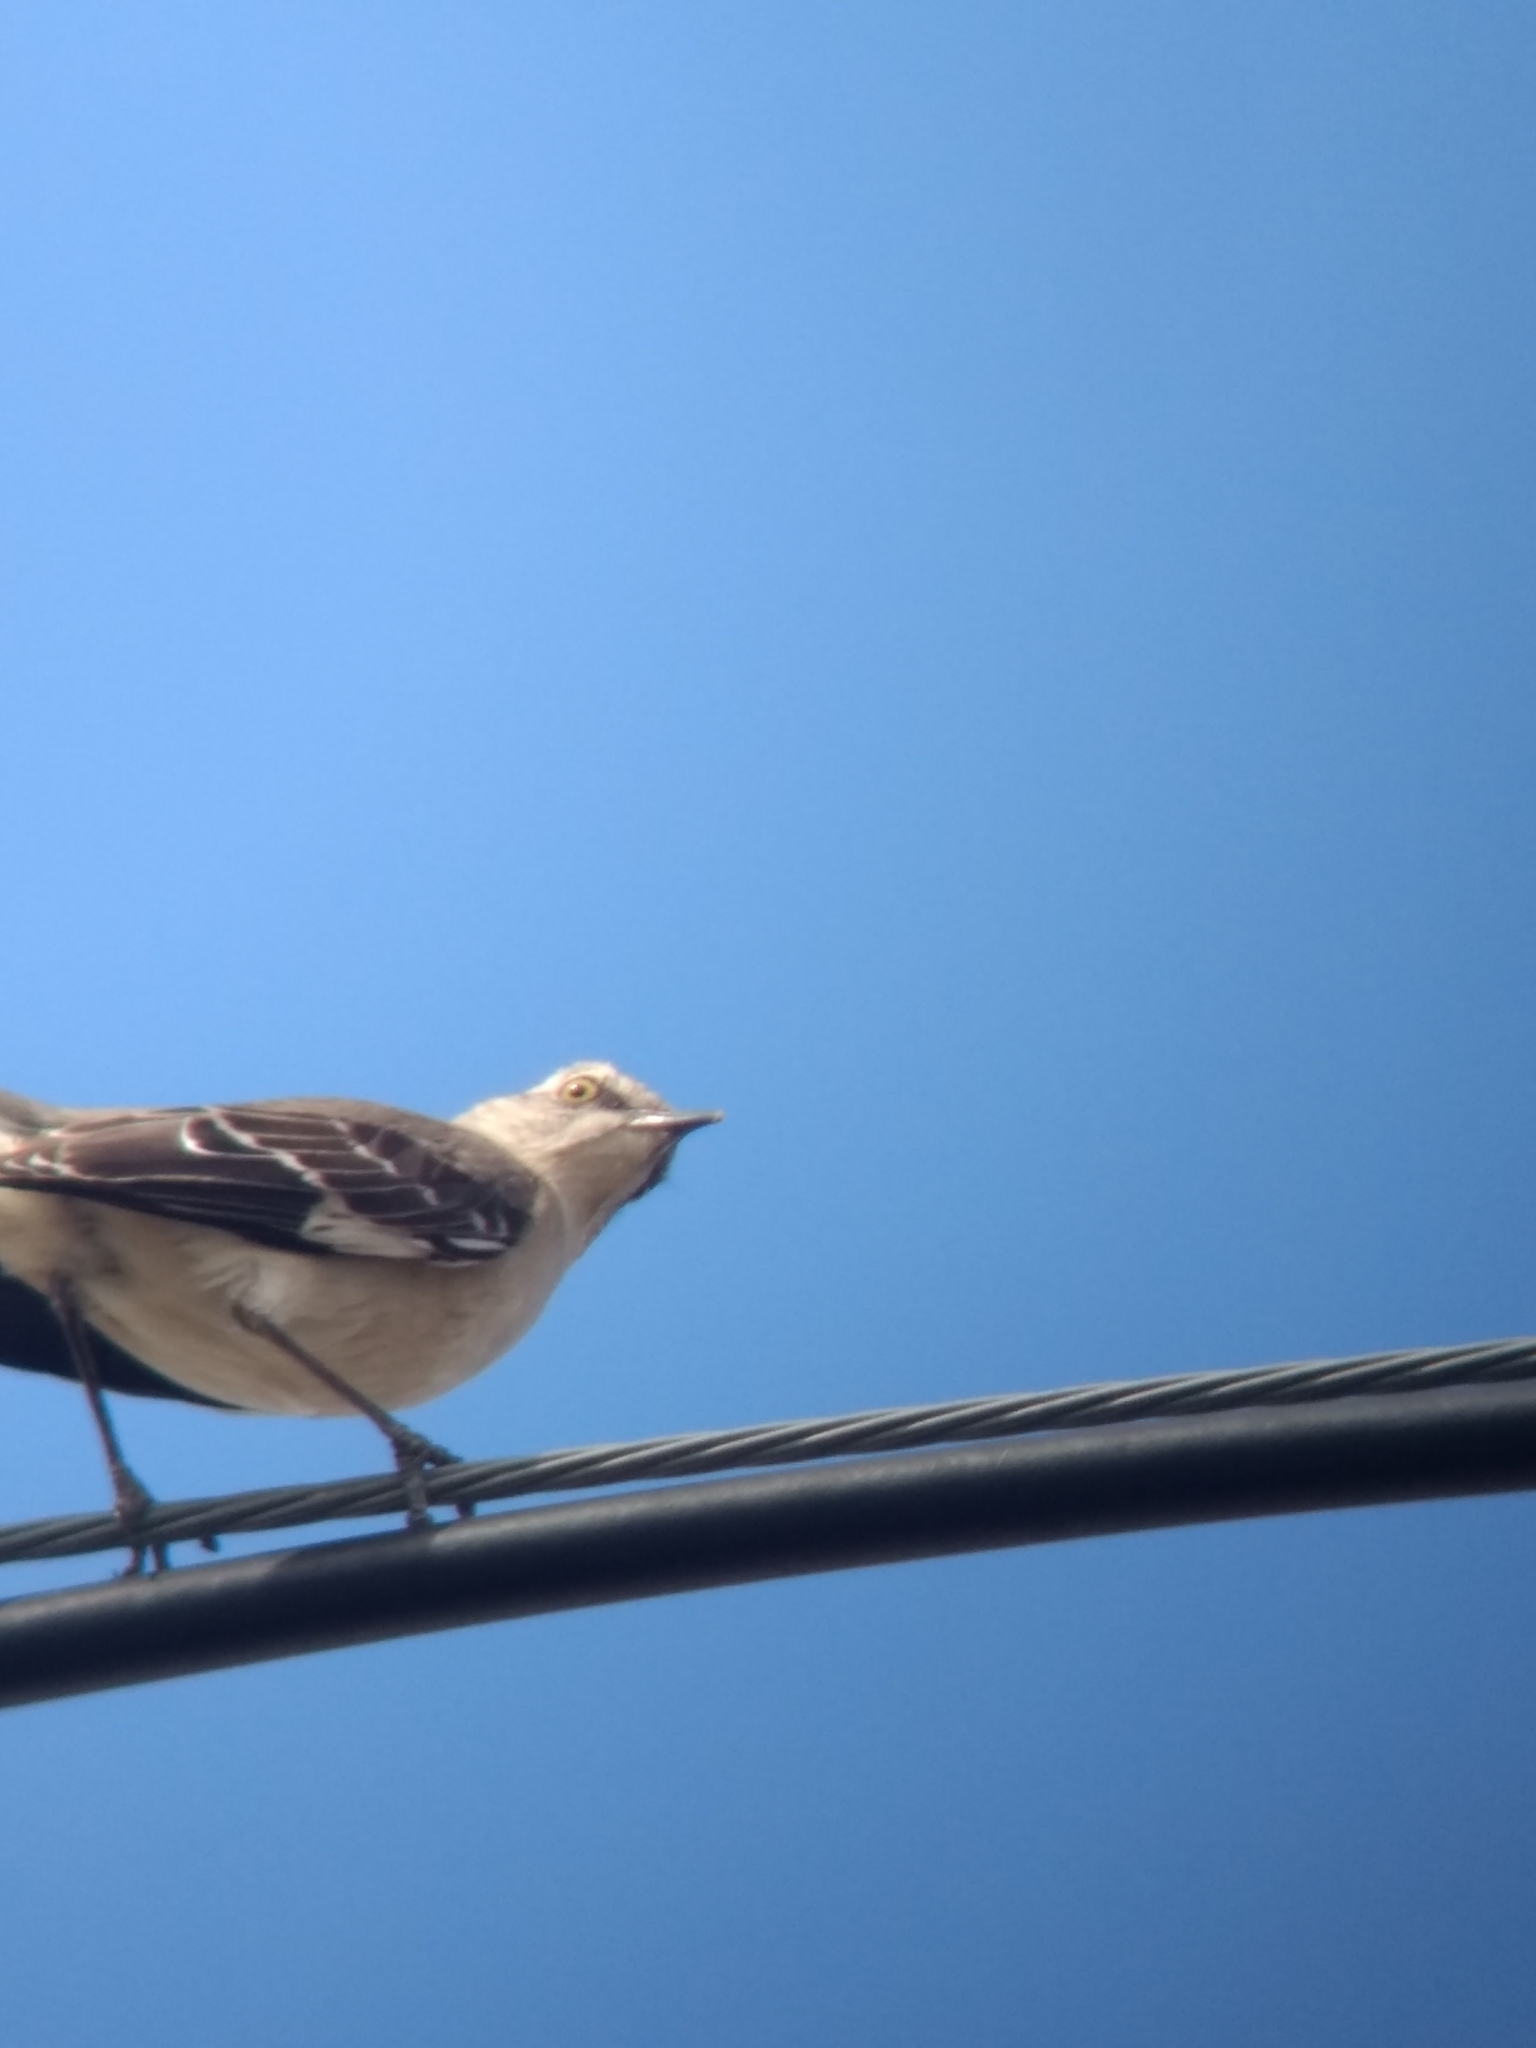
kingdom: Animalia
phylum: Chordata
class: Aves
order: Passeriformes
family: Mimidae
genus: Mimus
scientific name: Mimus polyglottos
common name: Northern mockingbird
